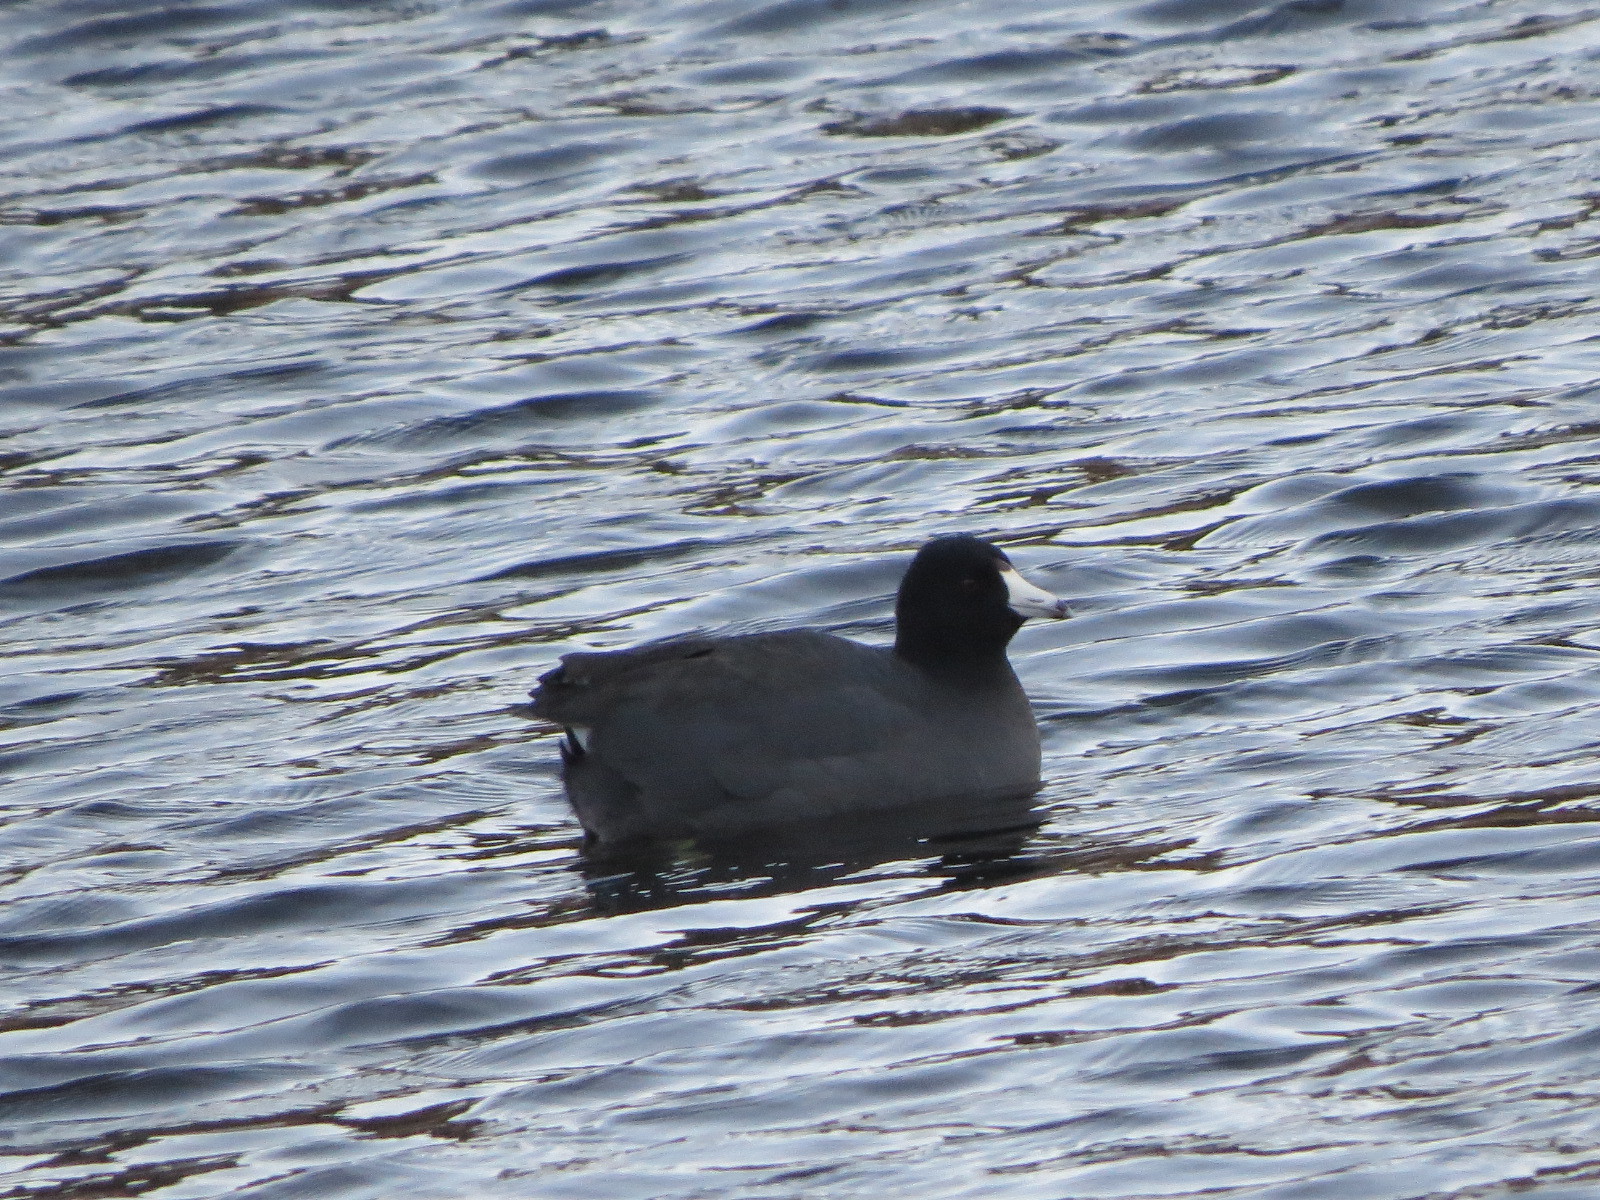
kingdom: Animalia
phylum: Chordata
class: Aves
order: Gruiformes
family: Rallidae
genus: Fulica
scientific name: Fulica americana
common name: American coot
